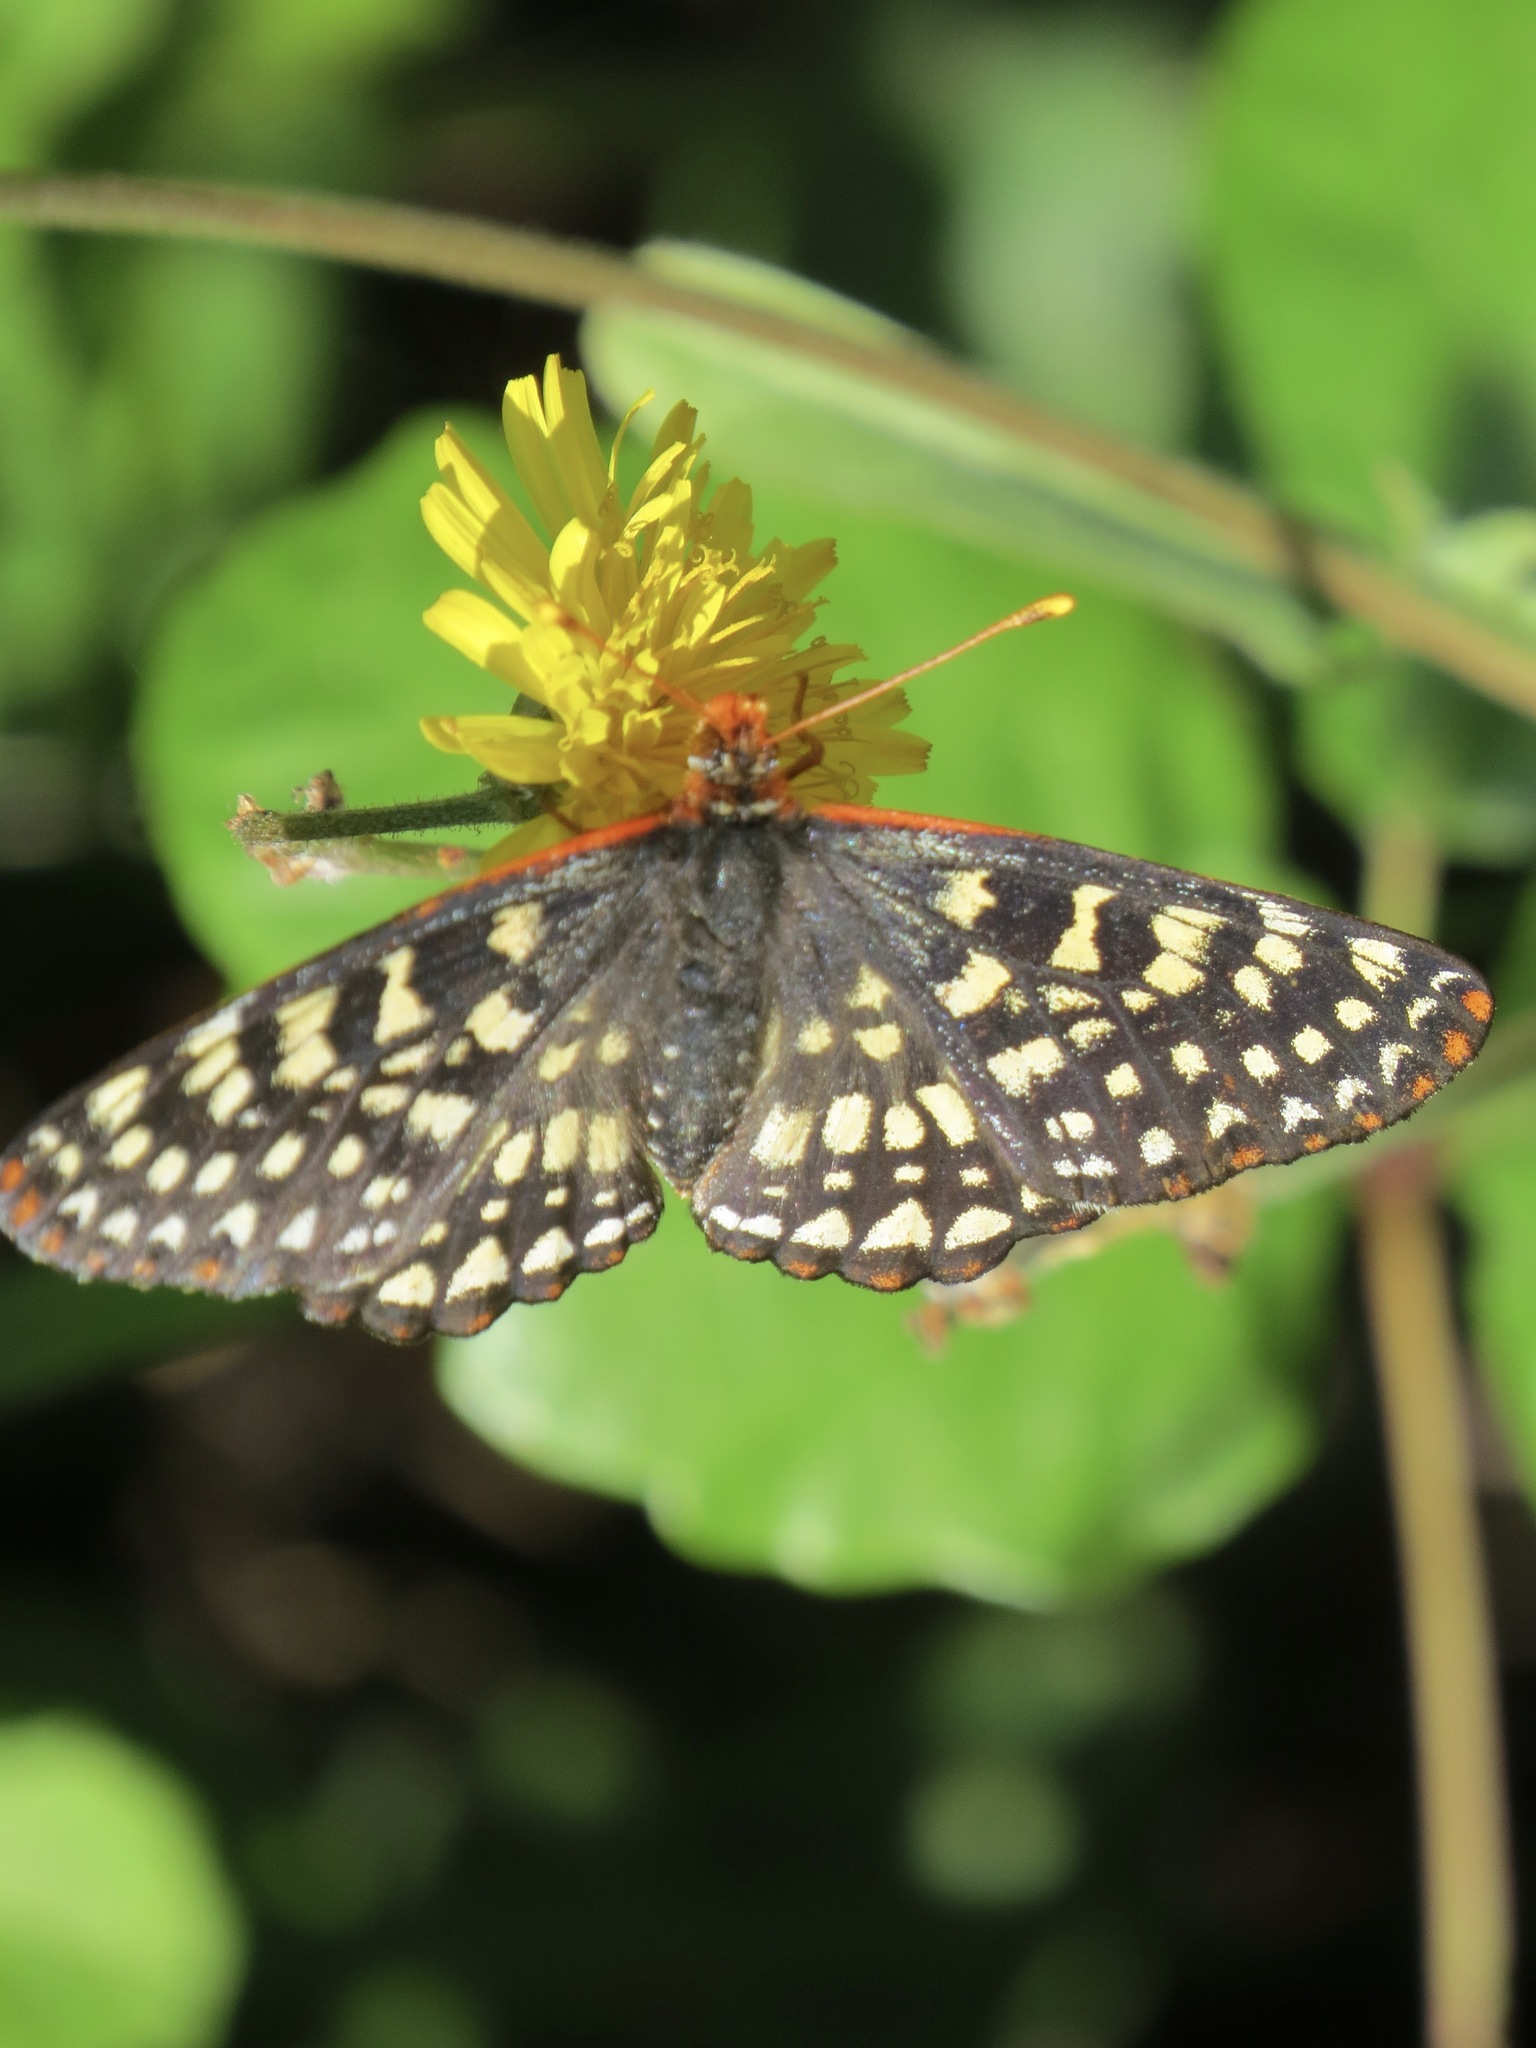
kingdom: Animalia
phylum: Arthropoda
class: Insecta
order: Lepidoptera
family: Nymphalidae
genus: Occidryas
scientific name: Occidryas chalcedona
